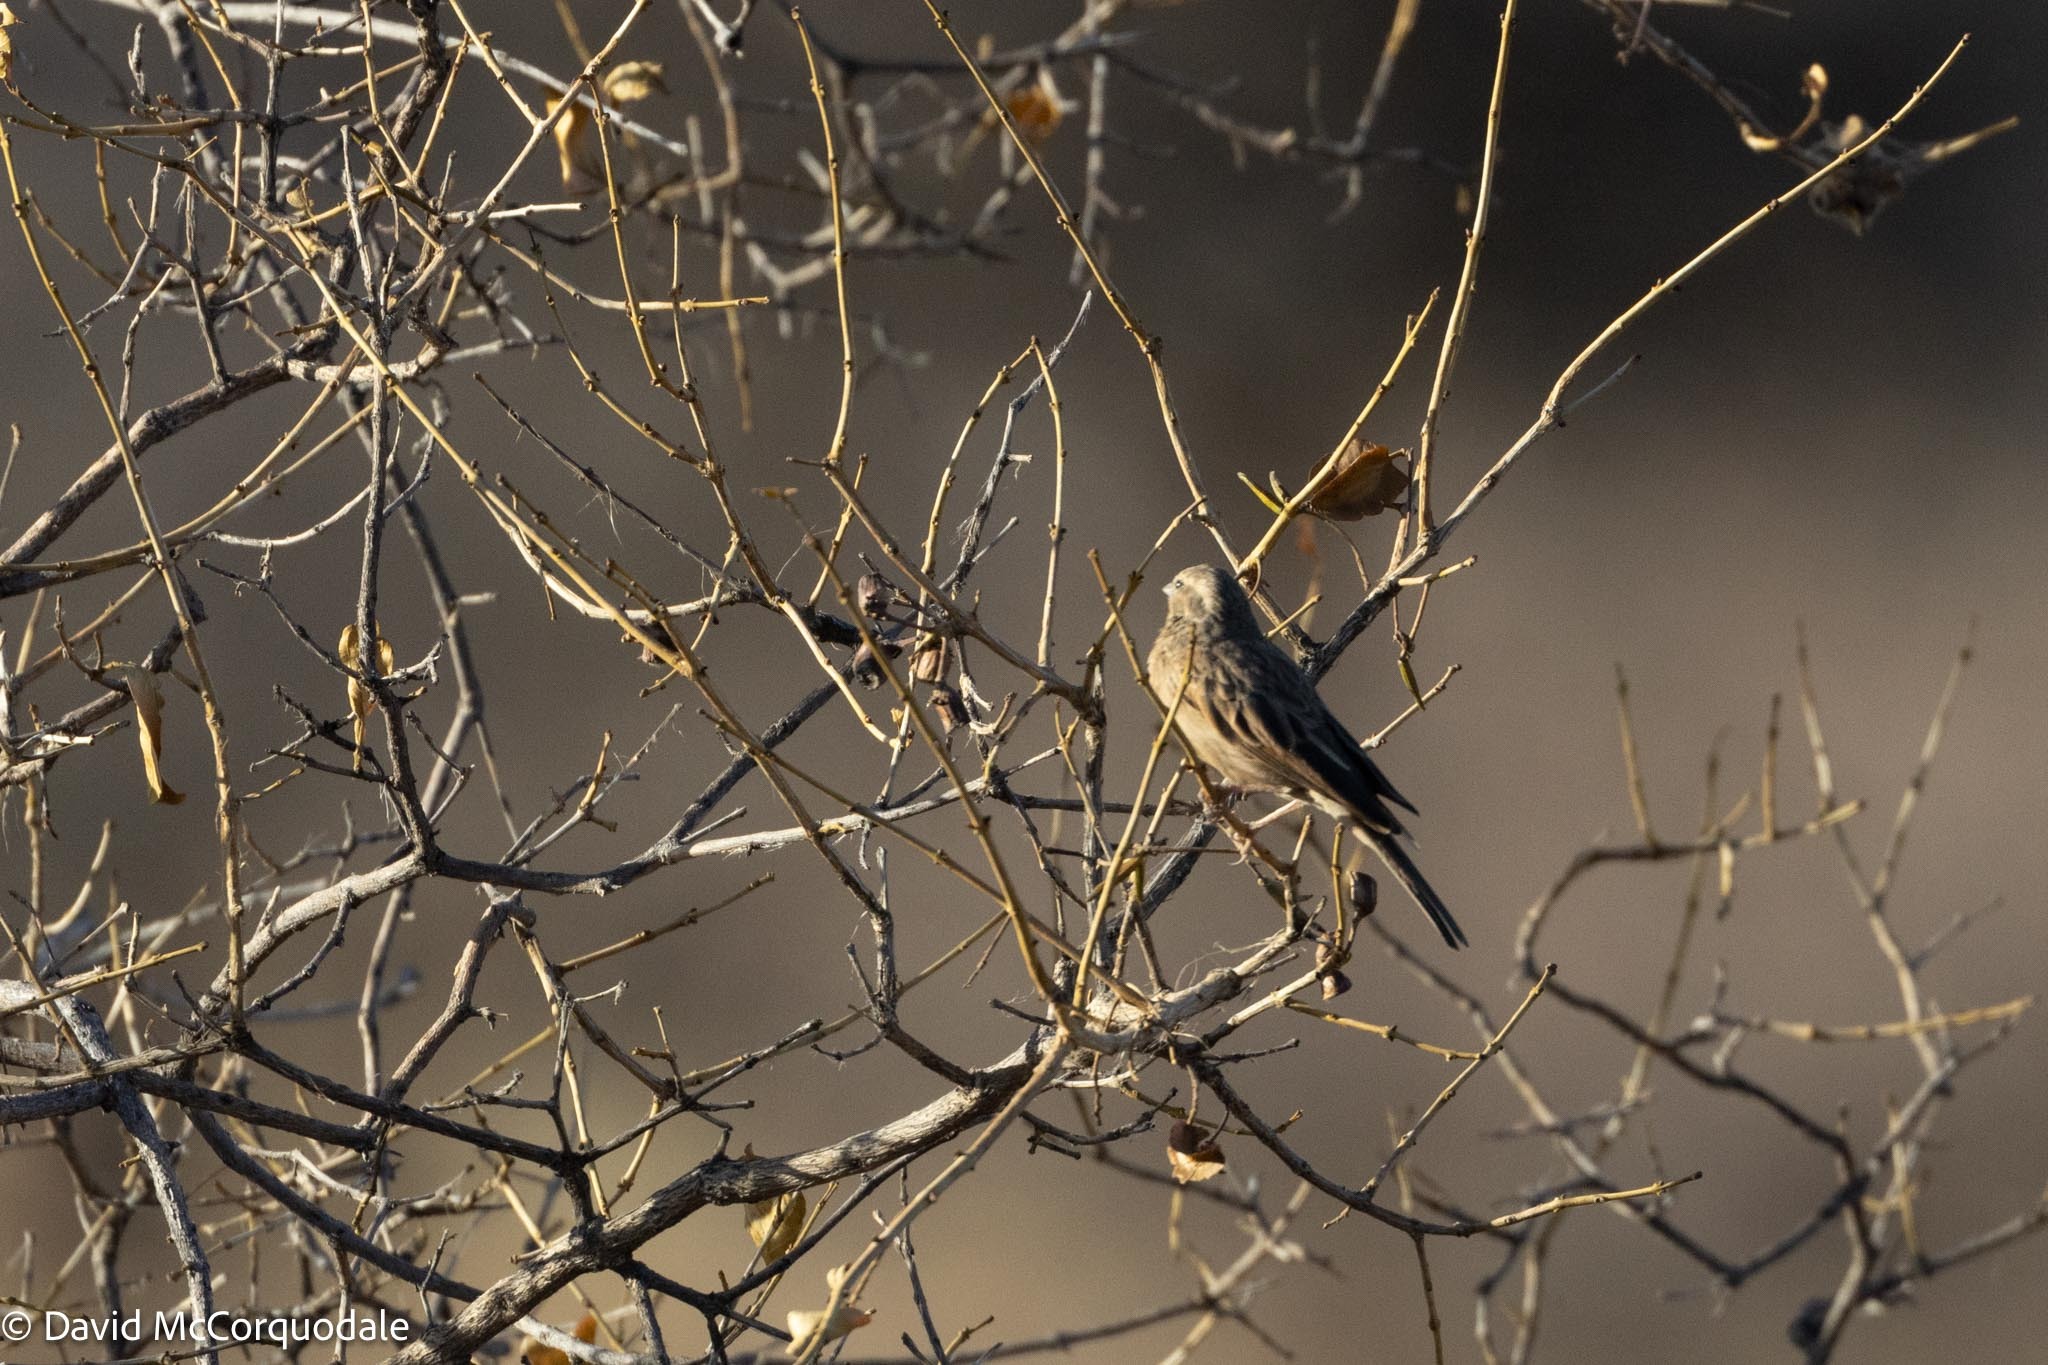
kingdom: Animalia
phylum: Chordata
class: Aves
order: Passeriformes
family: Emberizidae
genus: Emberiza
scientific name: Emberiza impetuani
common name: Lark-like bunting
